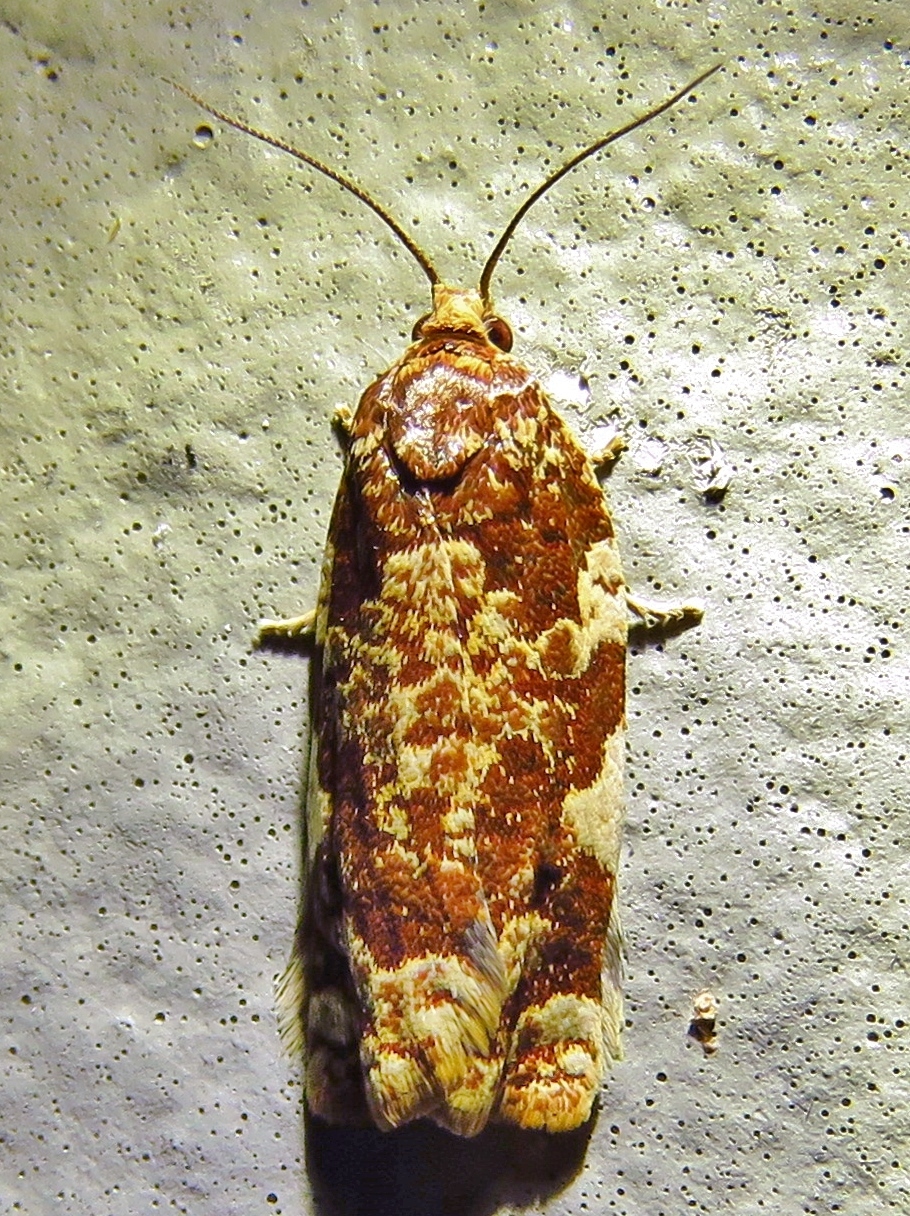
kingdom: Animalia
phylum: Arthropoda
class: Insecta
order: Lepidoptera
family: Tortricidae
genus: Archips
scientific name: Archips argyrospila
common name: Fruit-tree leafroller moth
